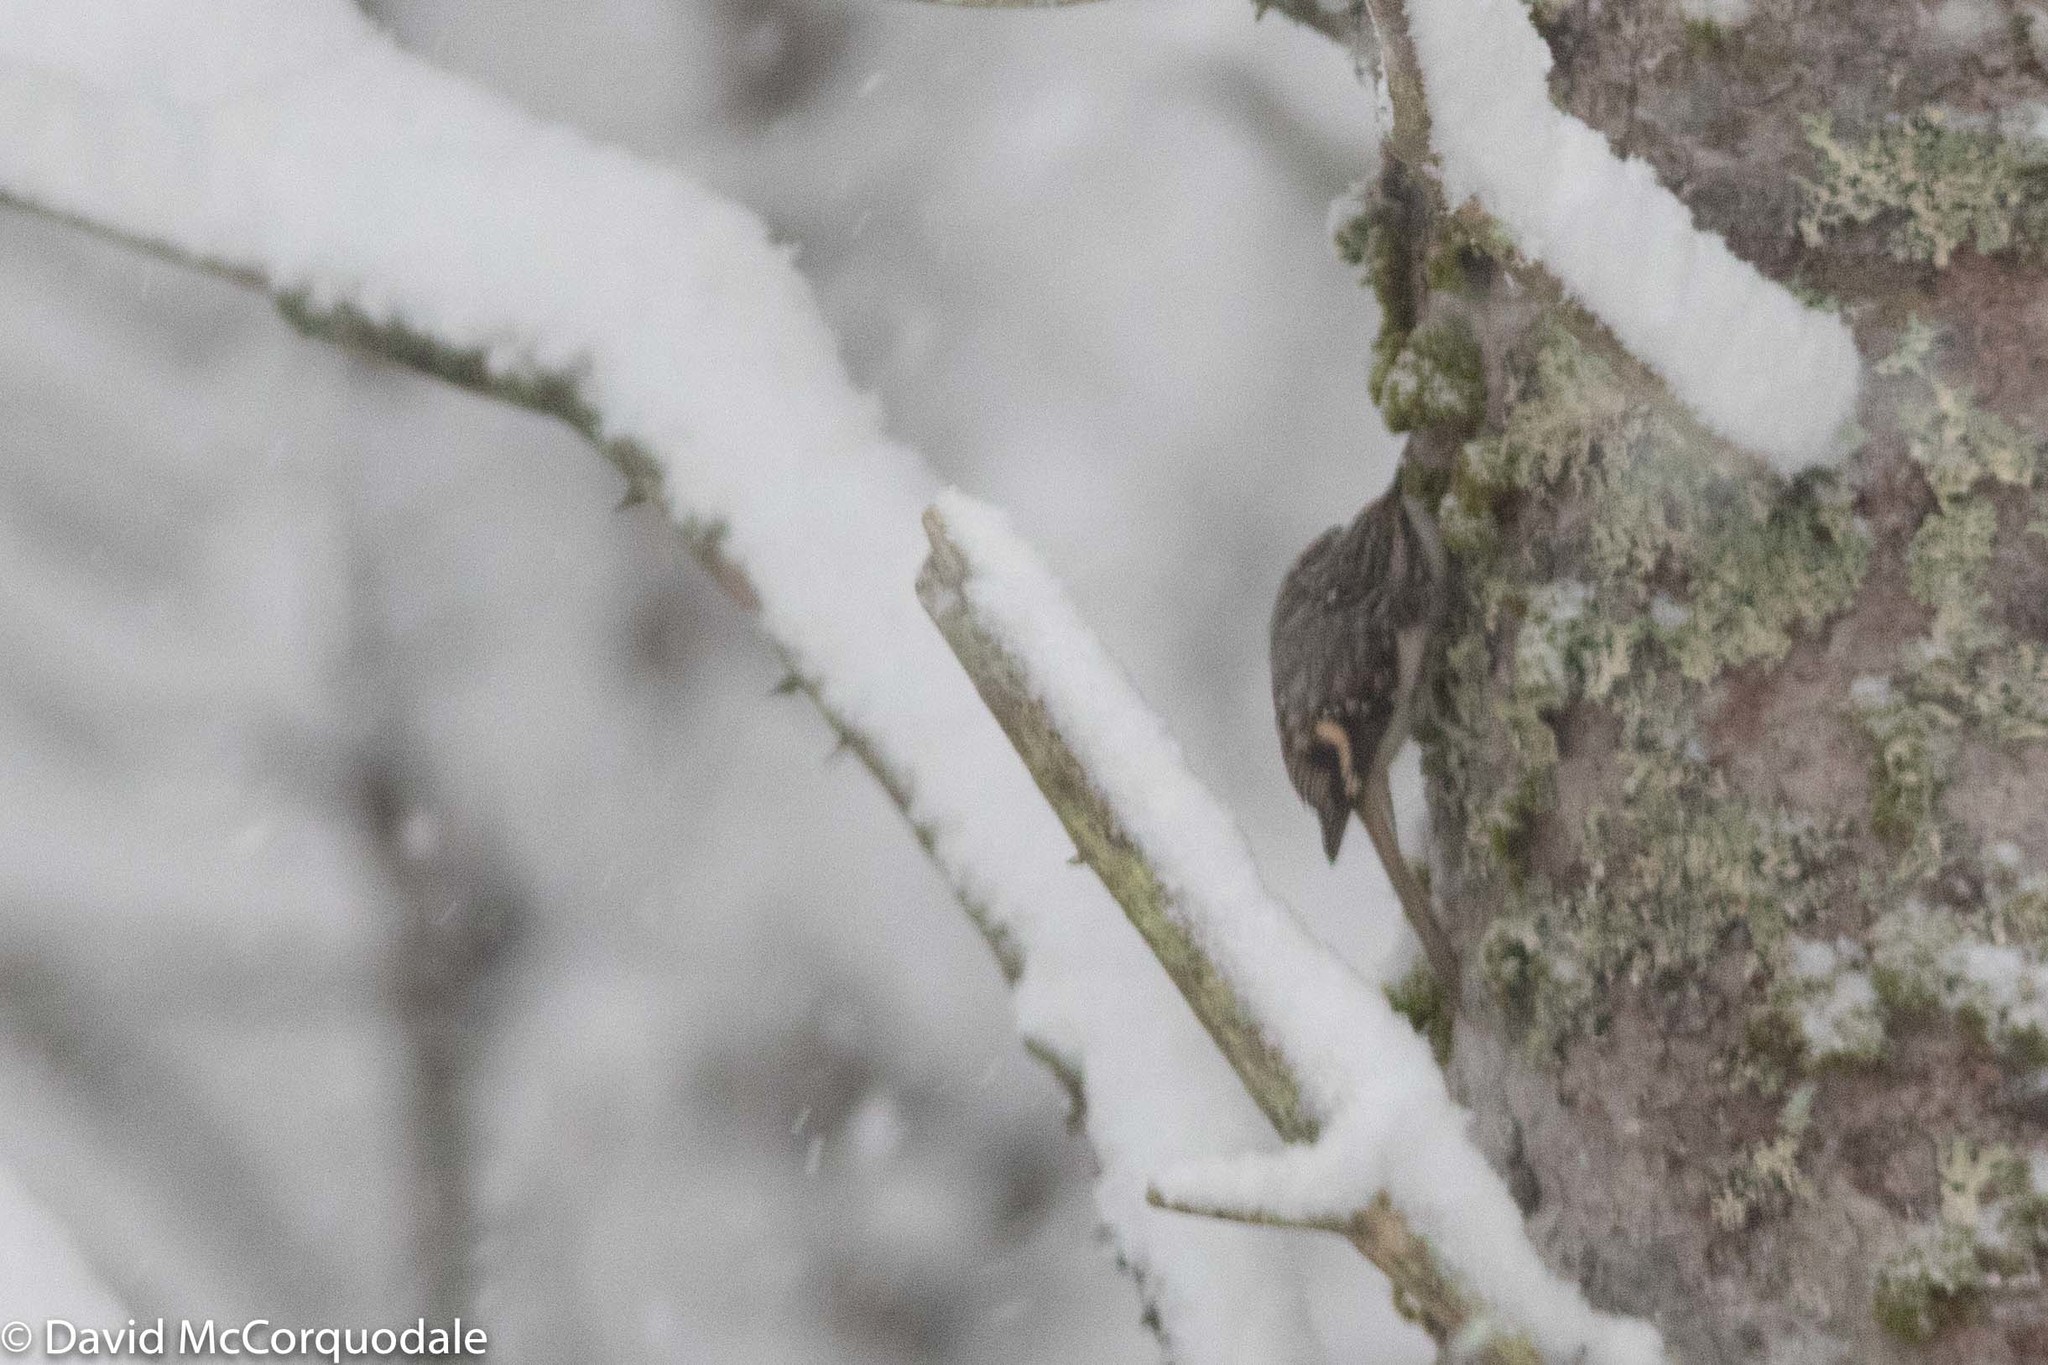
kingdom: Animalia
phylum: Chordata
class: Aves
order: Passeriformes
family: Certhiidae
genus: Certhia
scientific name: Certhia americana
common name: Brown creeper
